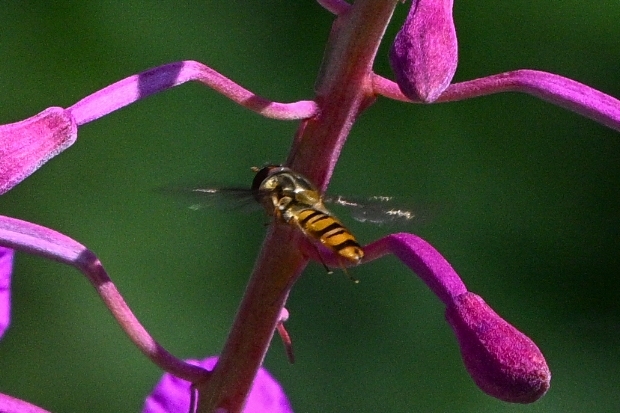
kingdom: Animalia
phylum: Arthropoda
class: Insecta
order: Diptera
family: Syrphidae
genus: Episyrphus
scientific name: Episyrphus balteatus
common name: Marmalade hoverfly
